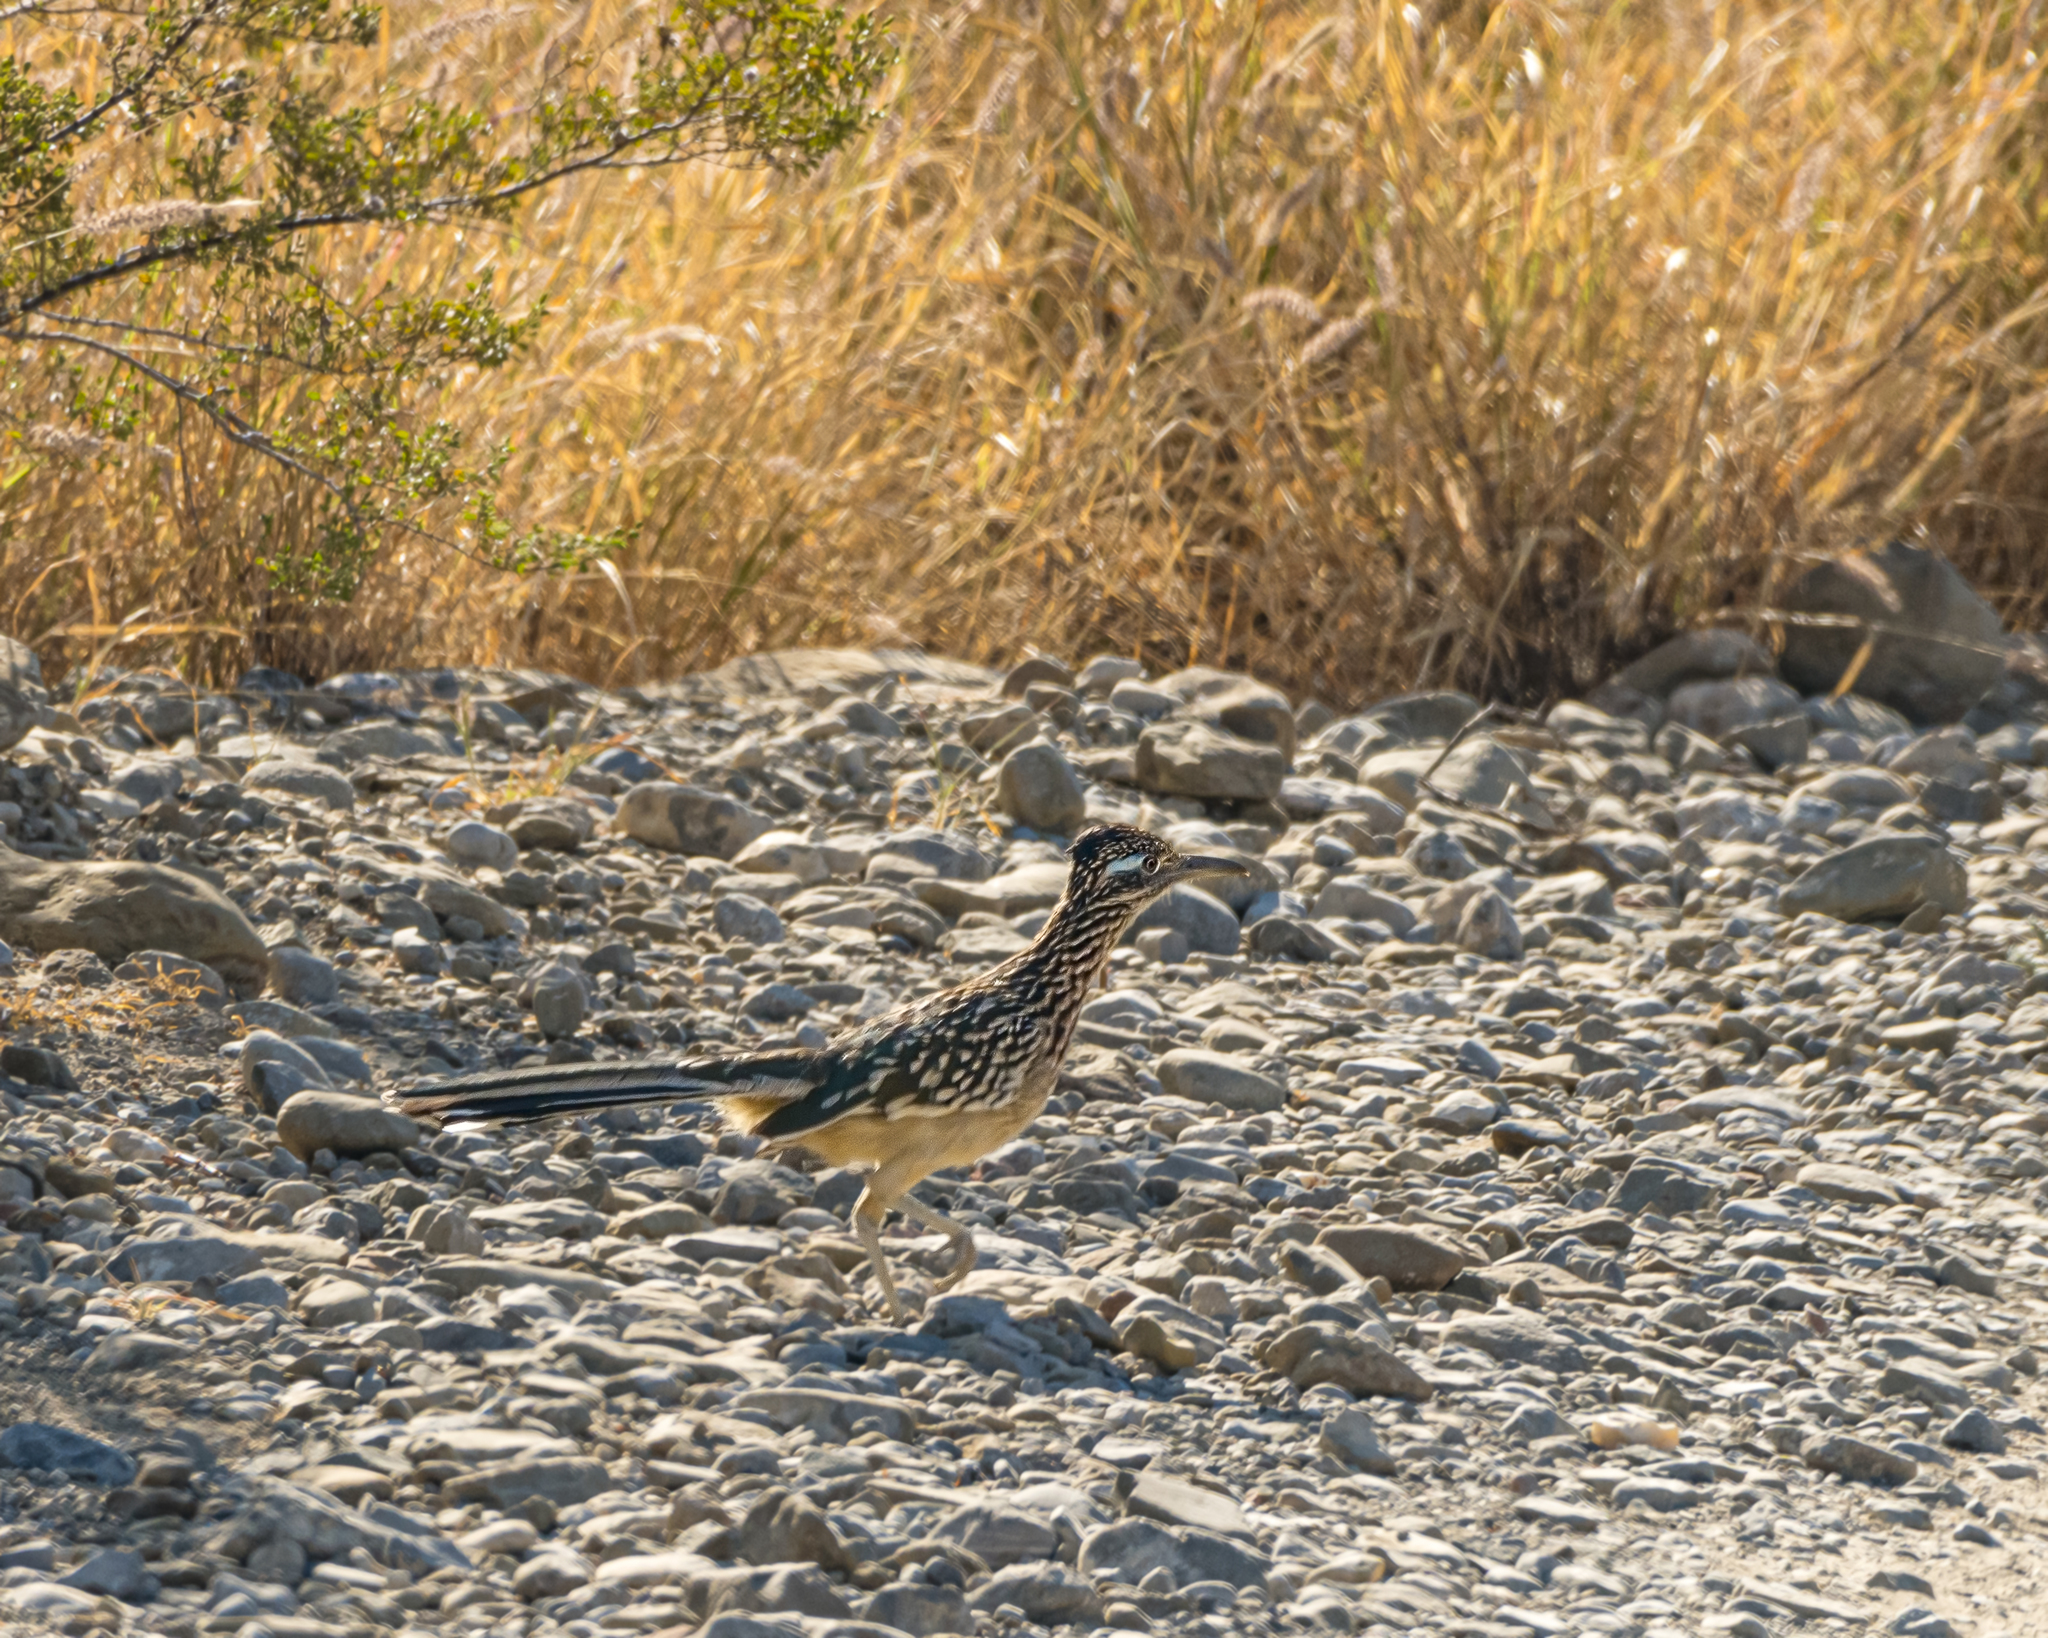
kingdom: Animalia
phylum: Chordata
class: Aves
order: Cuculiformes
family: Cuculidae
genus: Geococcyx
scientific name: Geococcyx californianus
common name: Greater roadrunner
